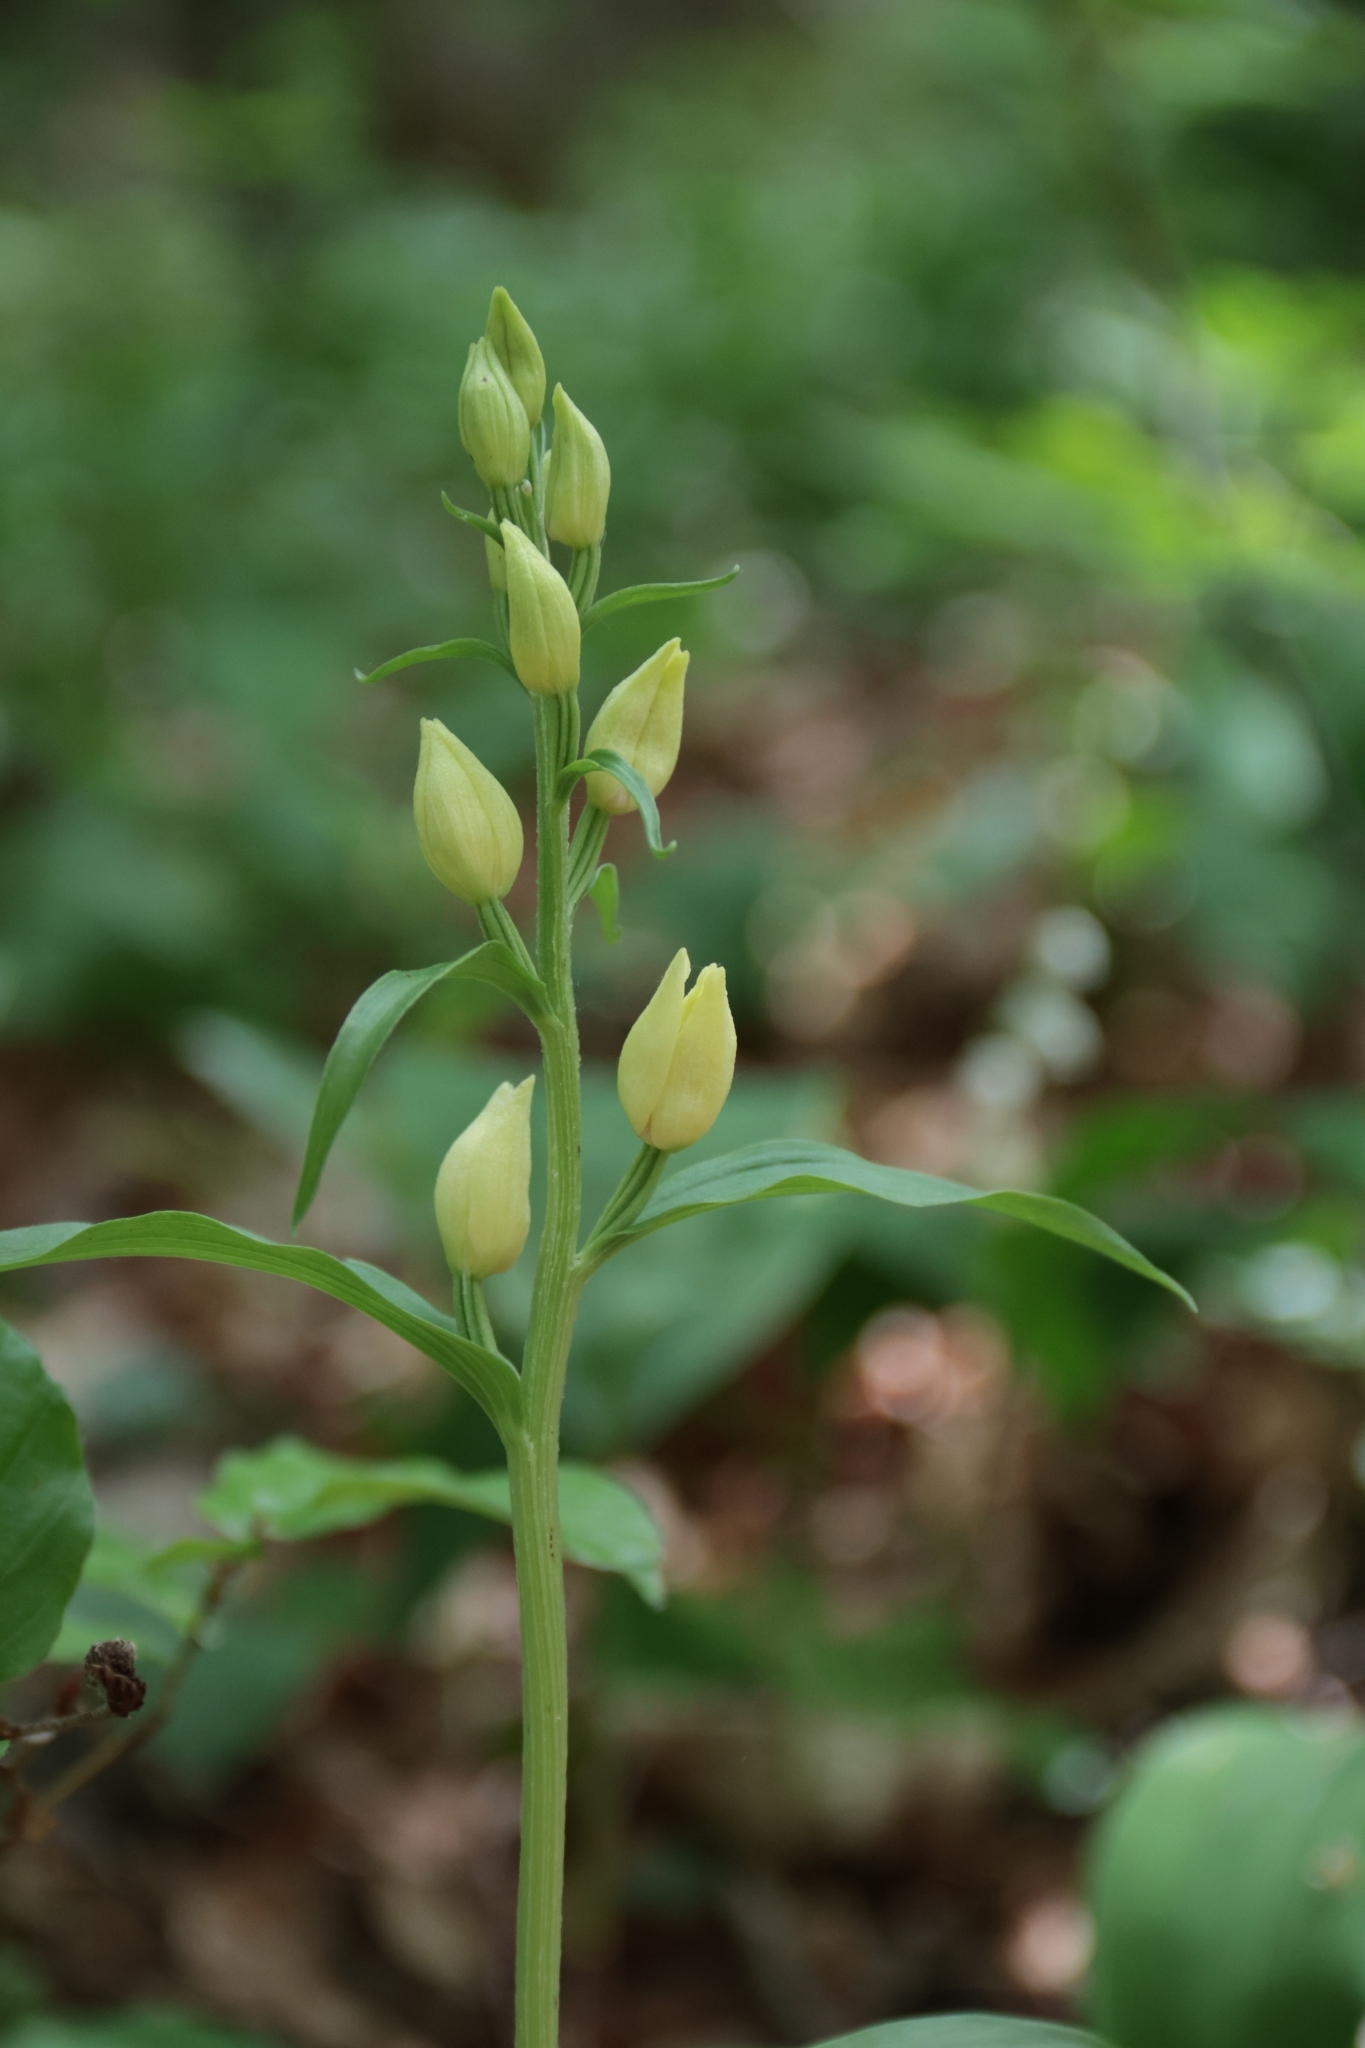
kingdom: Plantae
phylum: Tracheophyta
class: Liliopsida
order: Asparagales
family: Orchidaceae
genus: Cephalanthera
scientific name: Cephalanthera damasonium
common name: White helleborine
